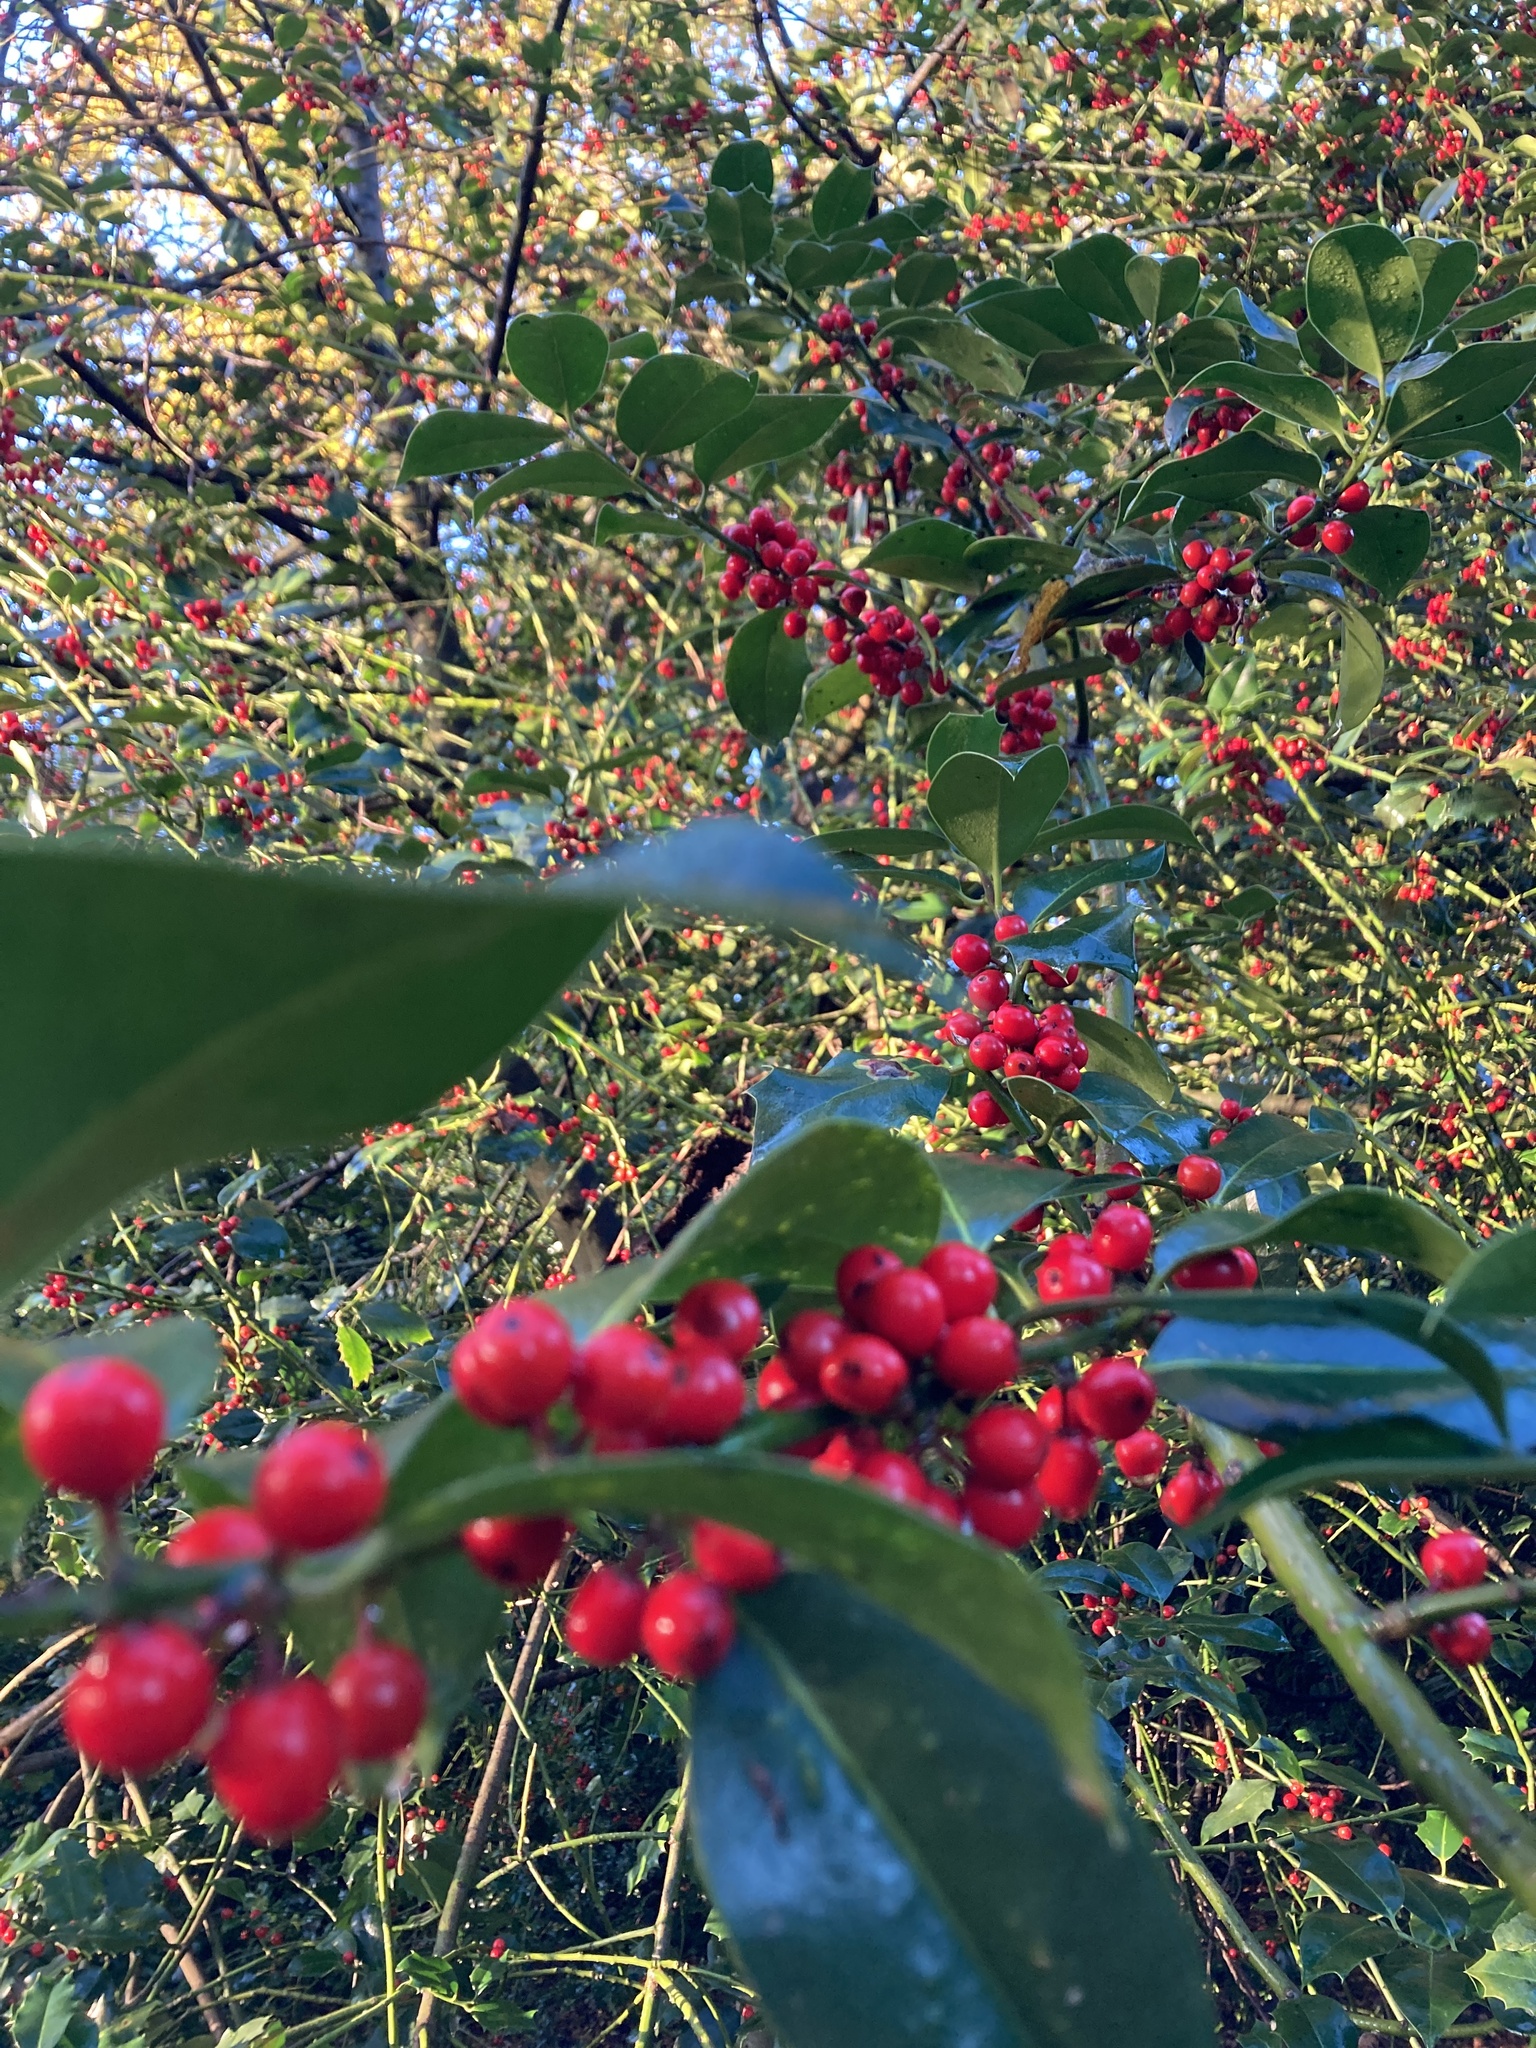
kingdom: Plantae
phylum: Tracheophyta
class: Magnoliopsida
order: Aquifoliales
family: Aquifoliaceae
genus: Ilex
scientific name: Ilex aquifolium
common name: English holly
